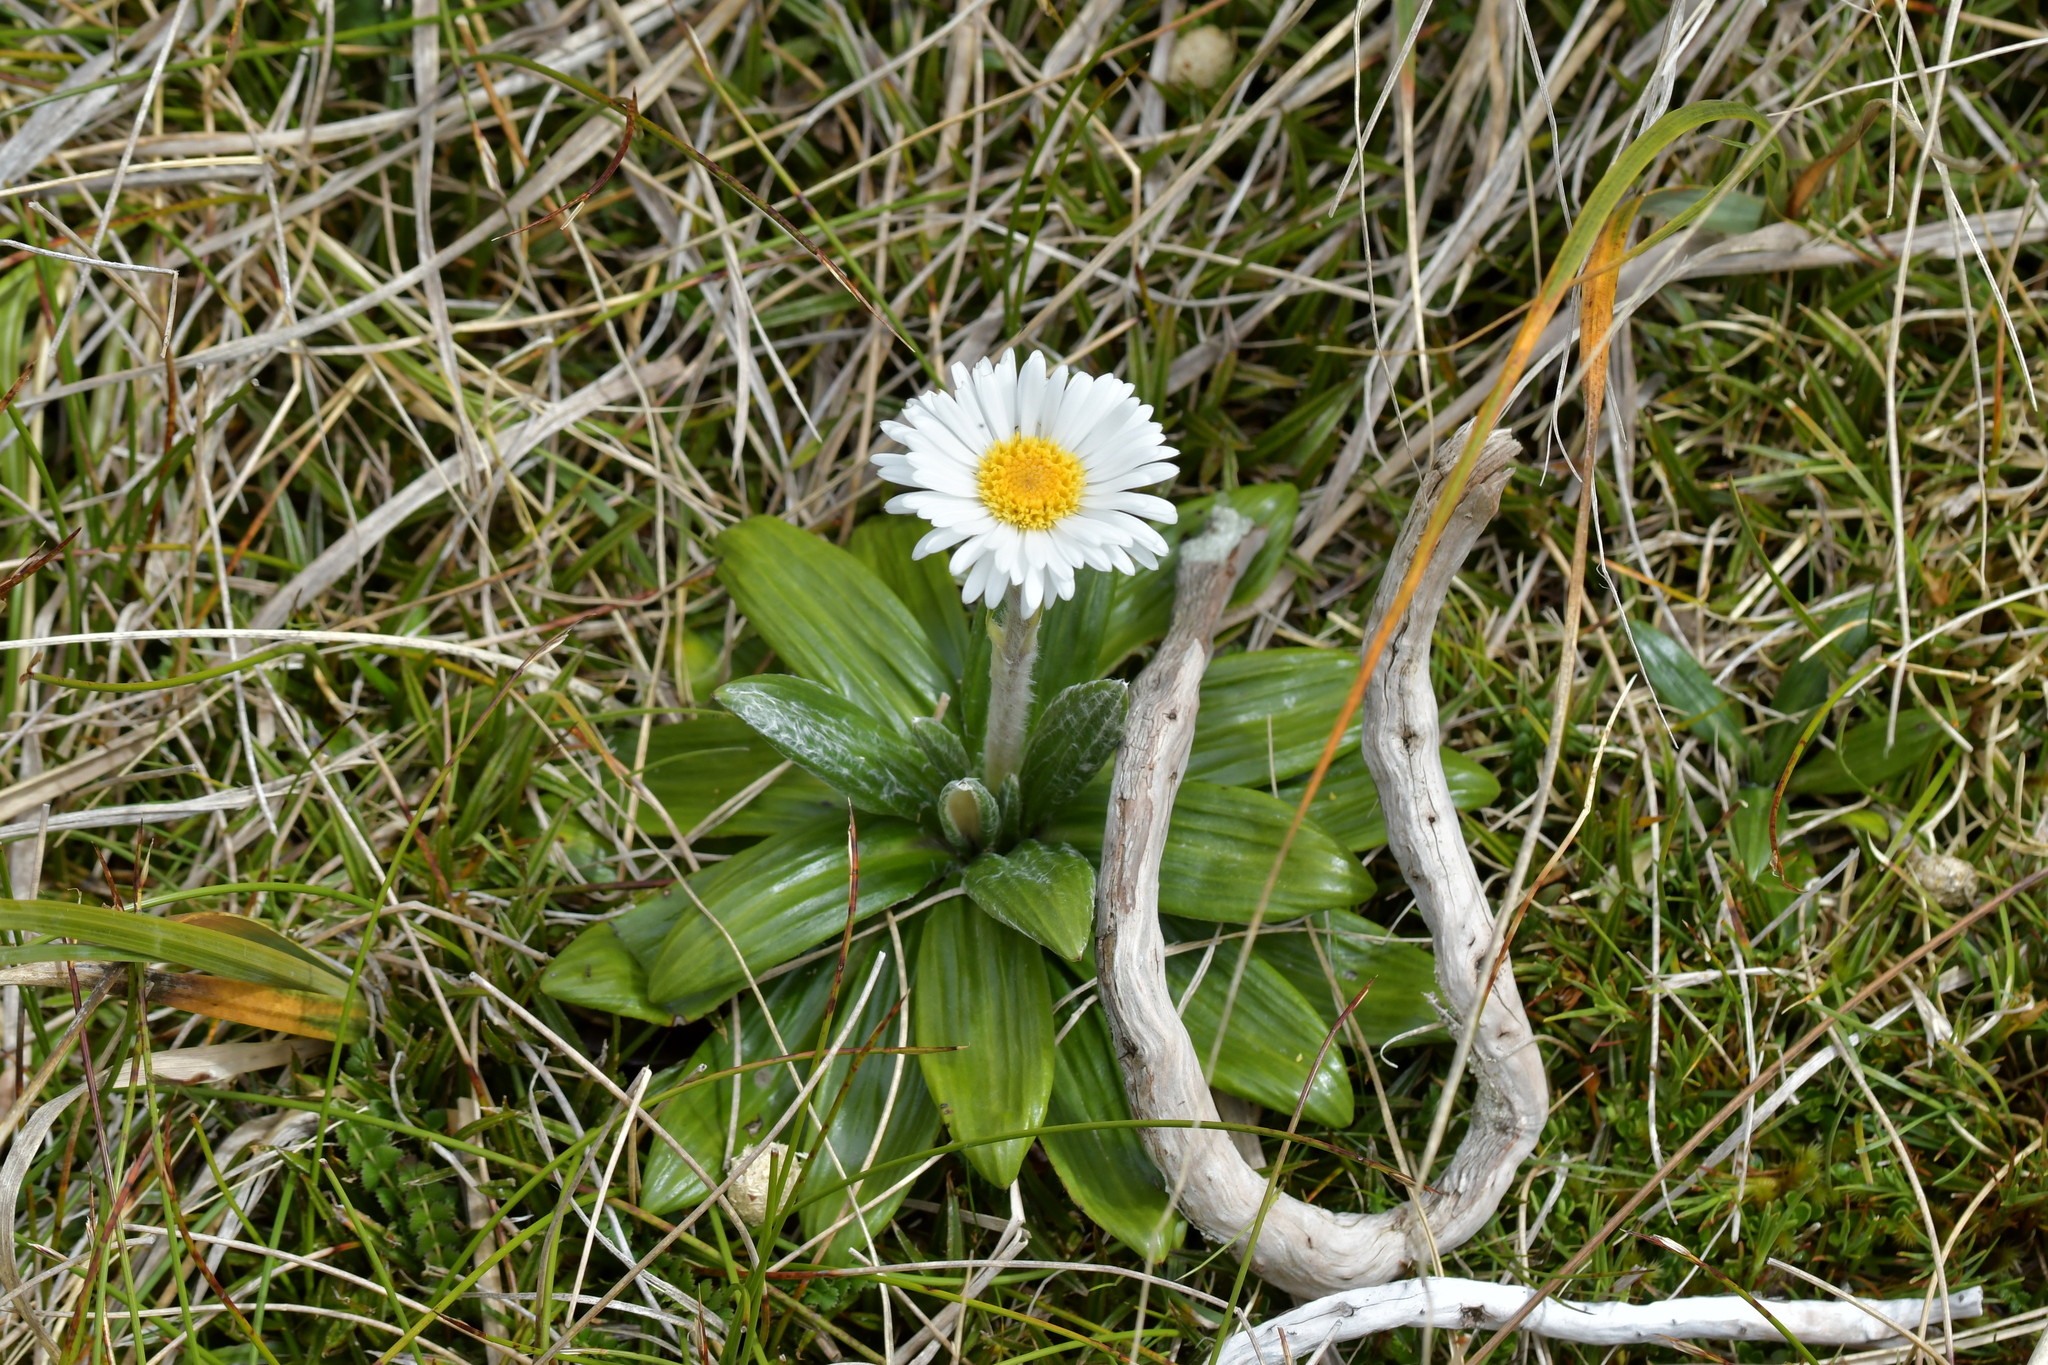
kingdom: Plantae
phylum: Tracheophyta
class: Magnoliopsida
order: Asterales
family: Asteraceae
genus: Celmisia
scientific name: Celmisia spectabilis
